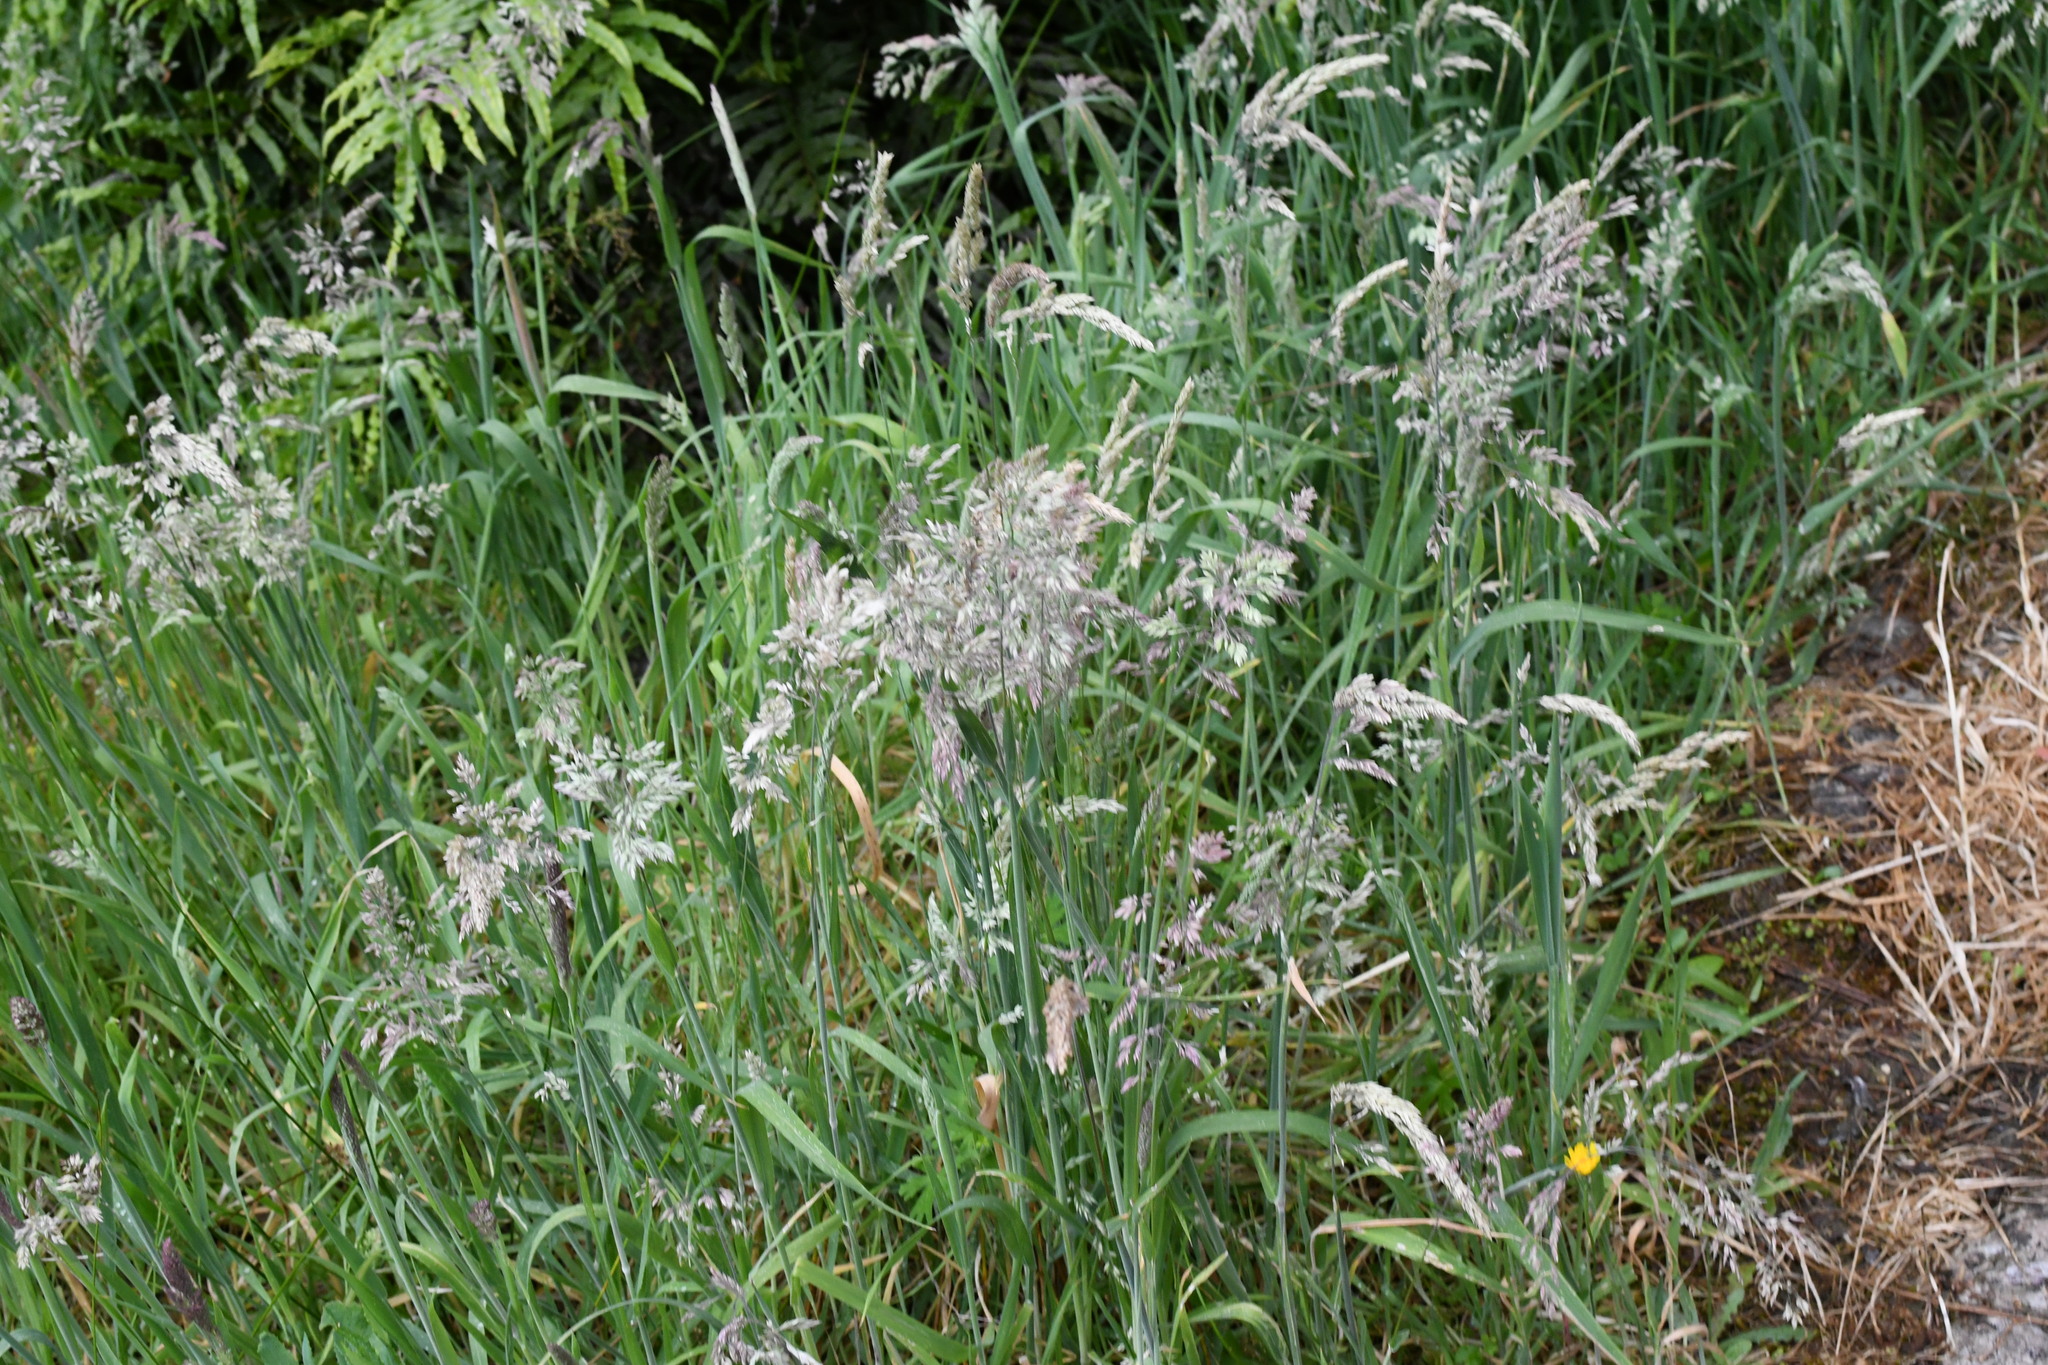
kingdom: Plantae
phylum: Tracheophyta
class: Liliopsida
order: Poales
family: Poaceae
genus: Holcus
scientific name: Holcus lanatus
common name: Yorkshire-fog
